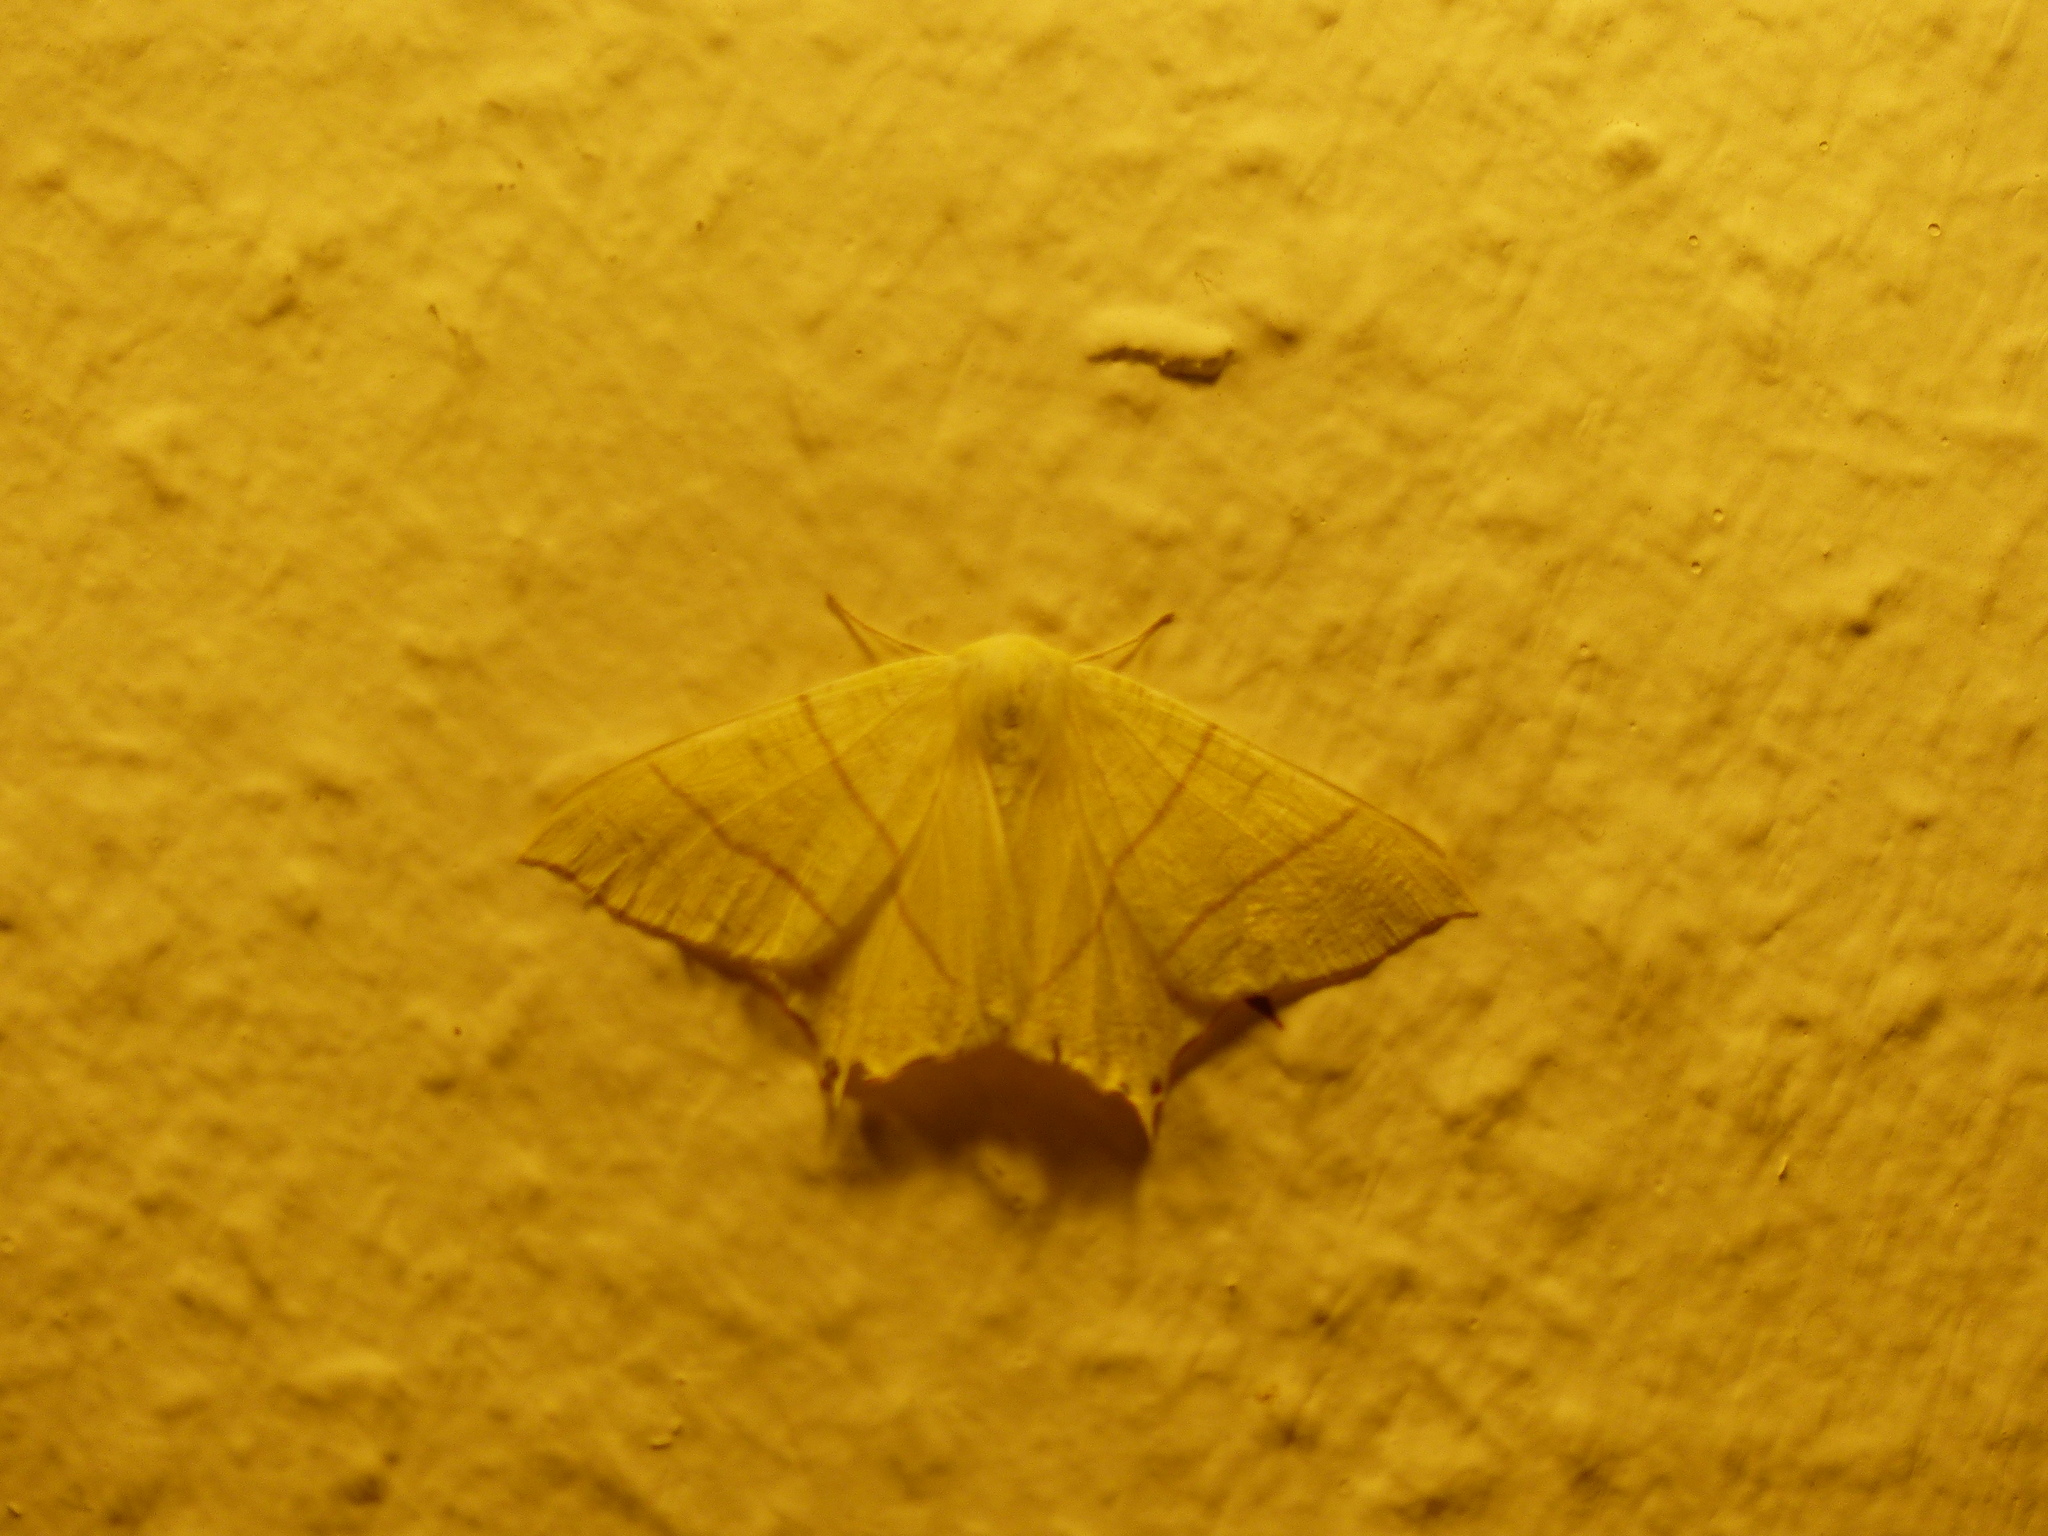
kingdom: Animalia
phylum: Arthropoda
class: Insecta
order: Lepidoptera
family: Geometridae
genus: Ourapteryx
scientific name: Ourapteryx sambucaria
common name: Swallow-tailed moth
